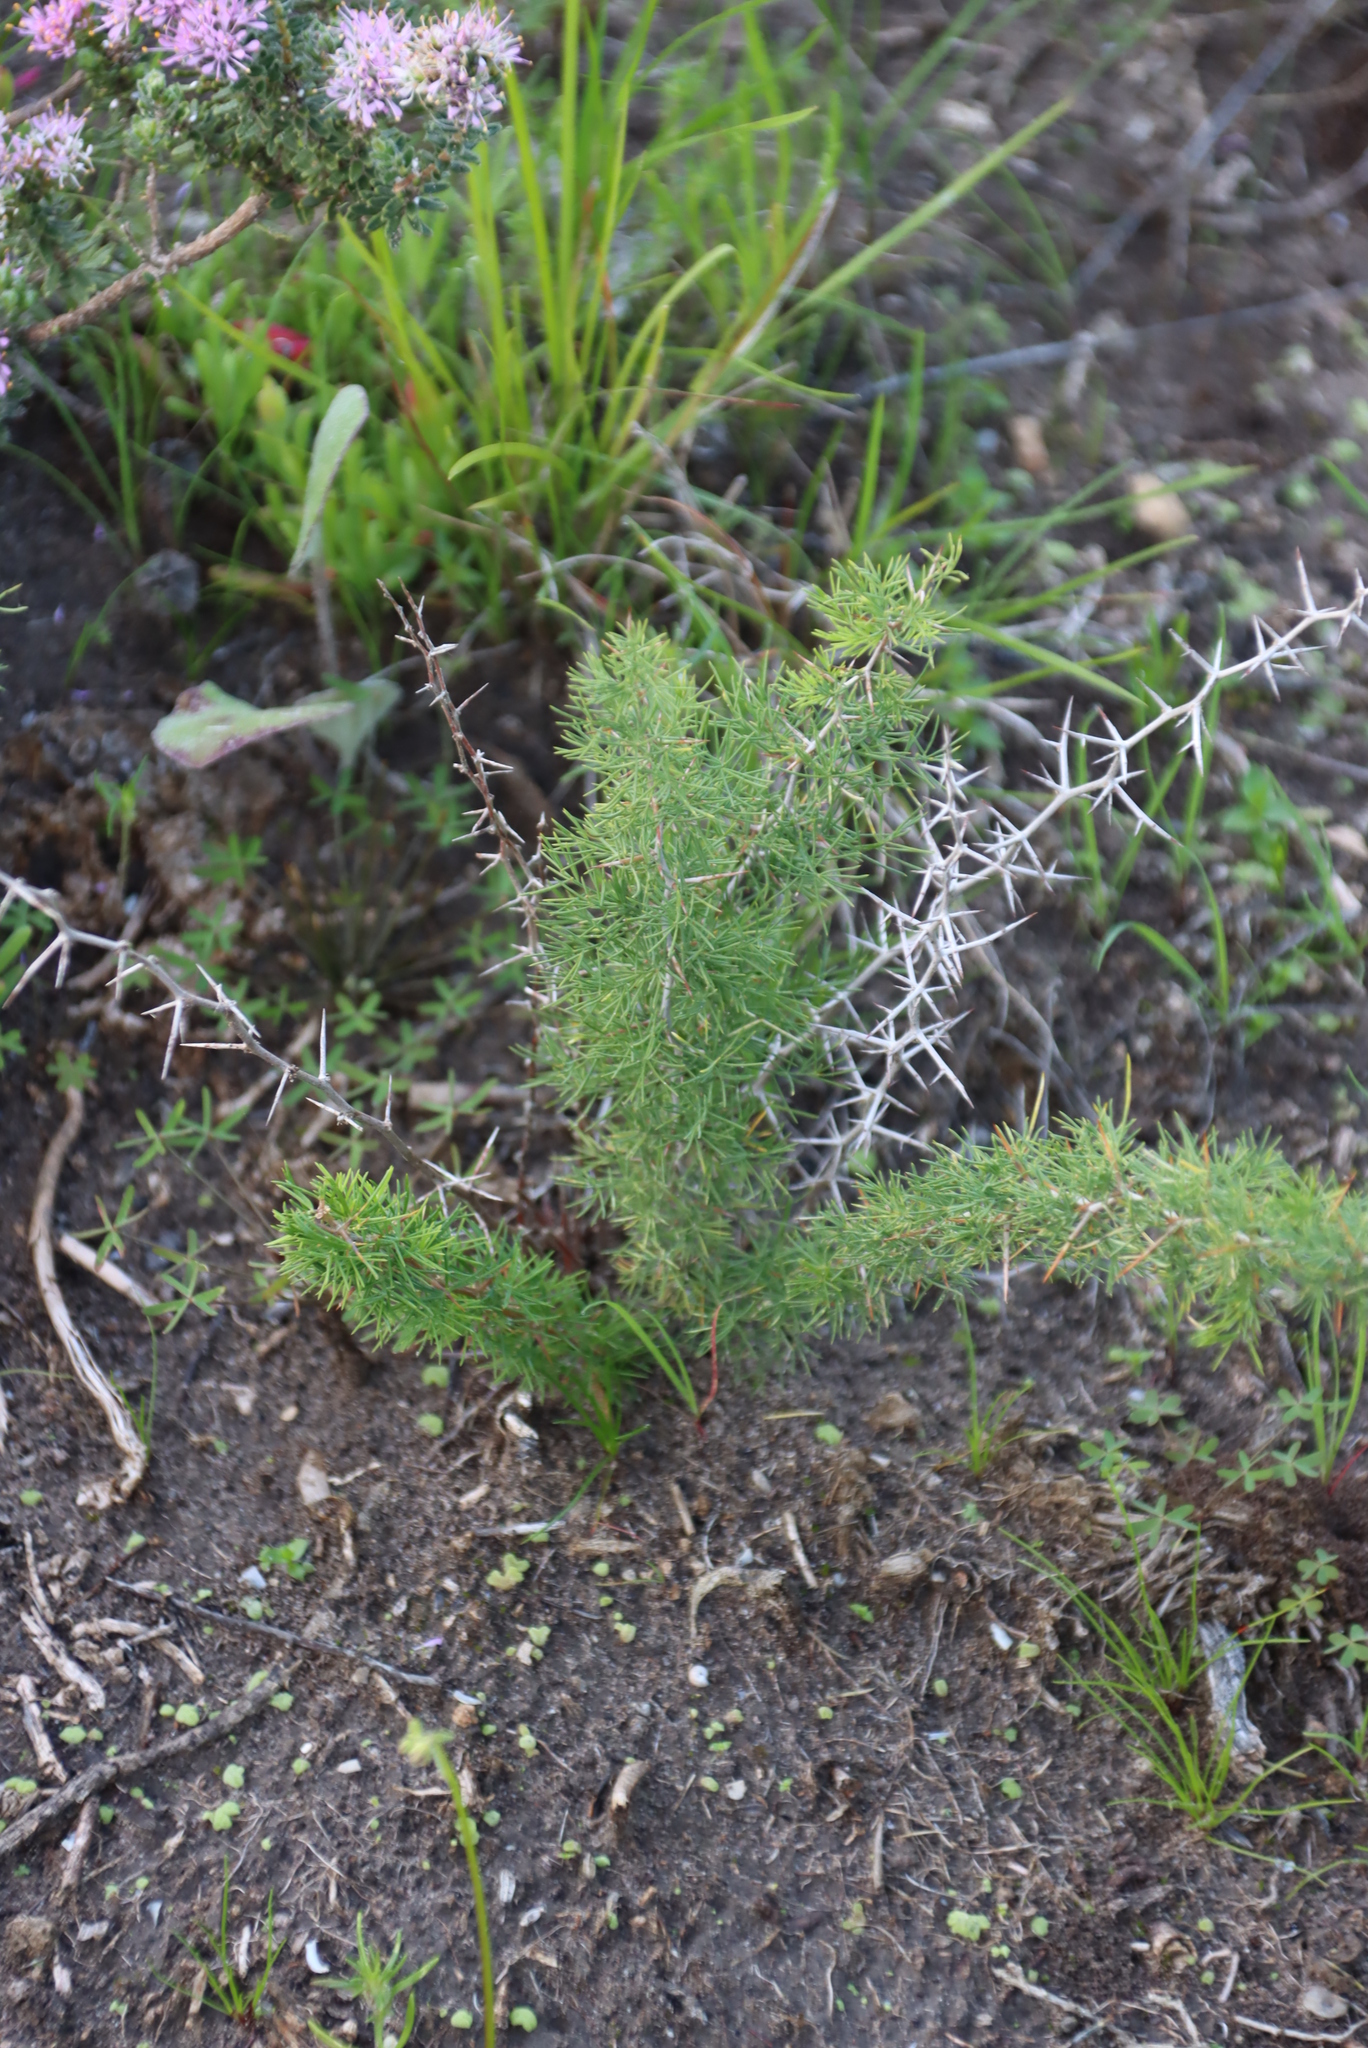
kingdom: Plantae
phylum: Tracheophyta
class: Liliopsida
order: Asparagales
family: Asparagaceae
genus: Asparagus
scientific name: Asparagus suaveolens
